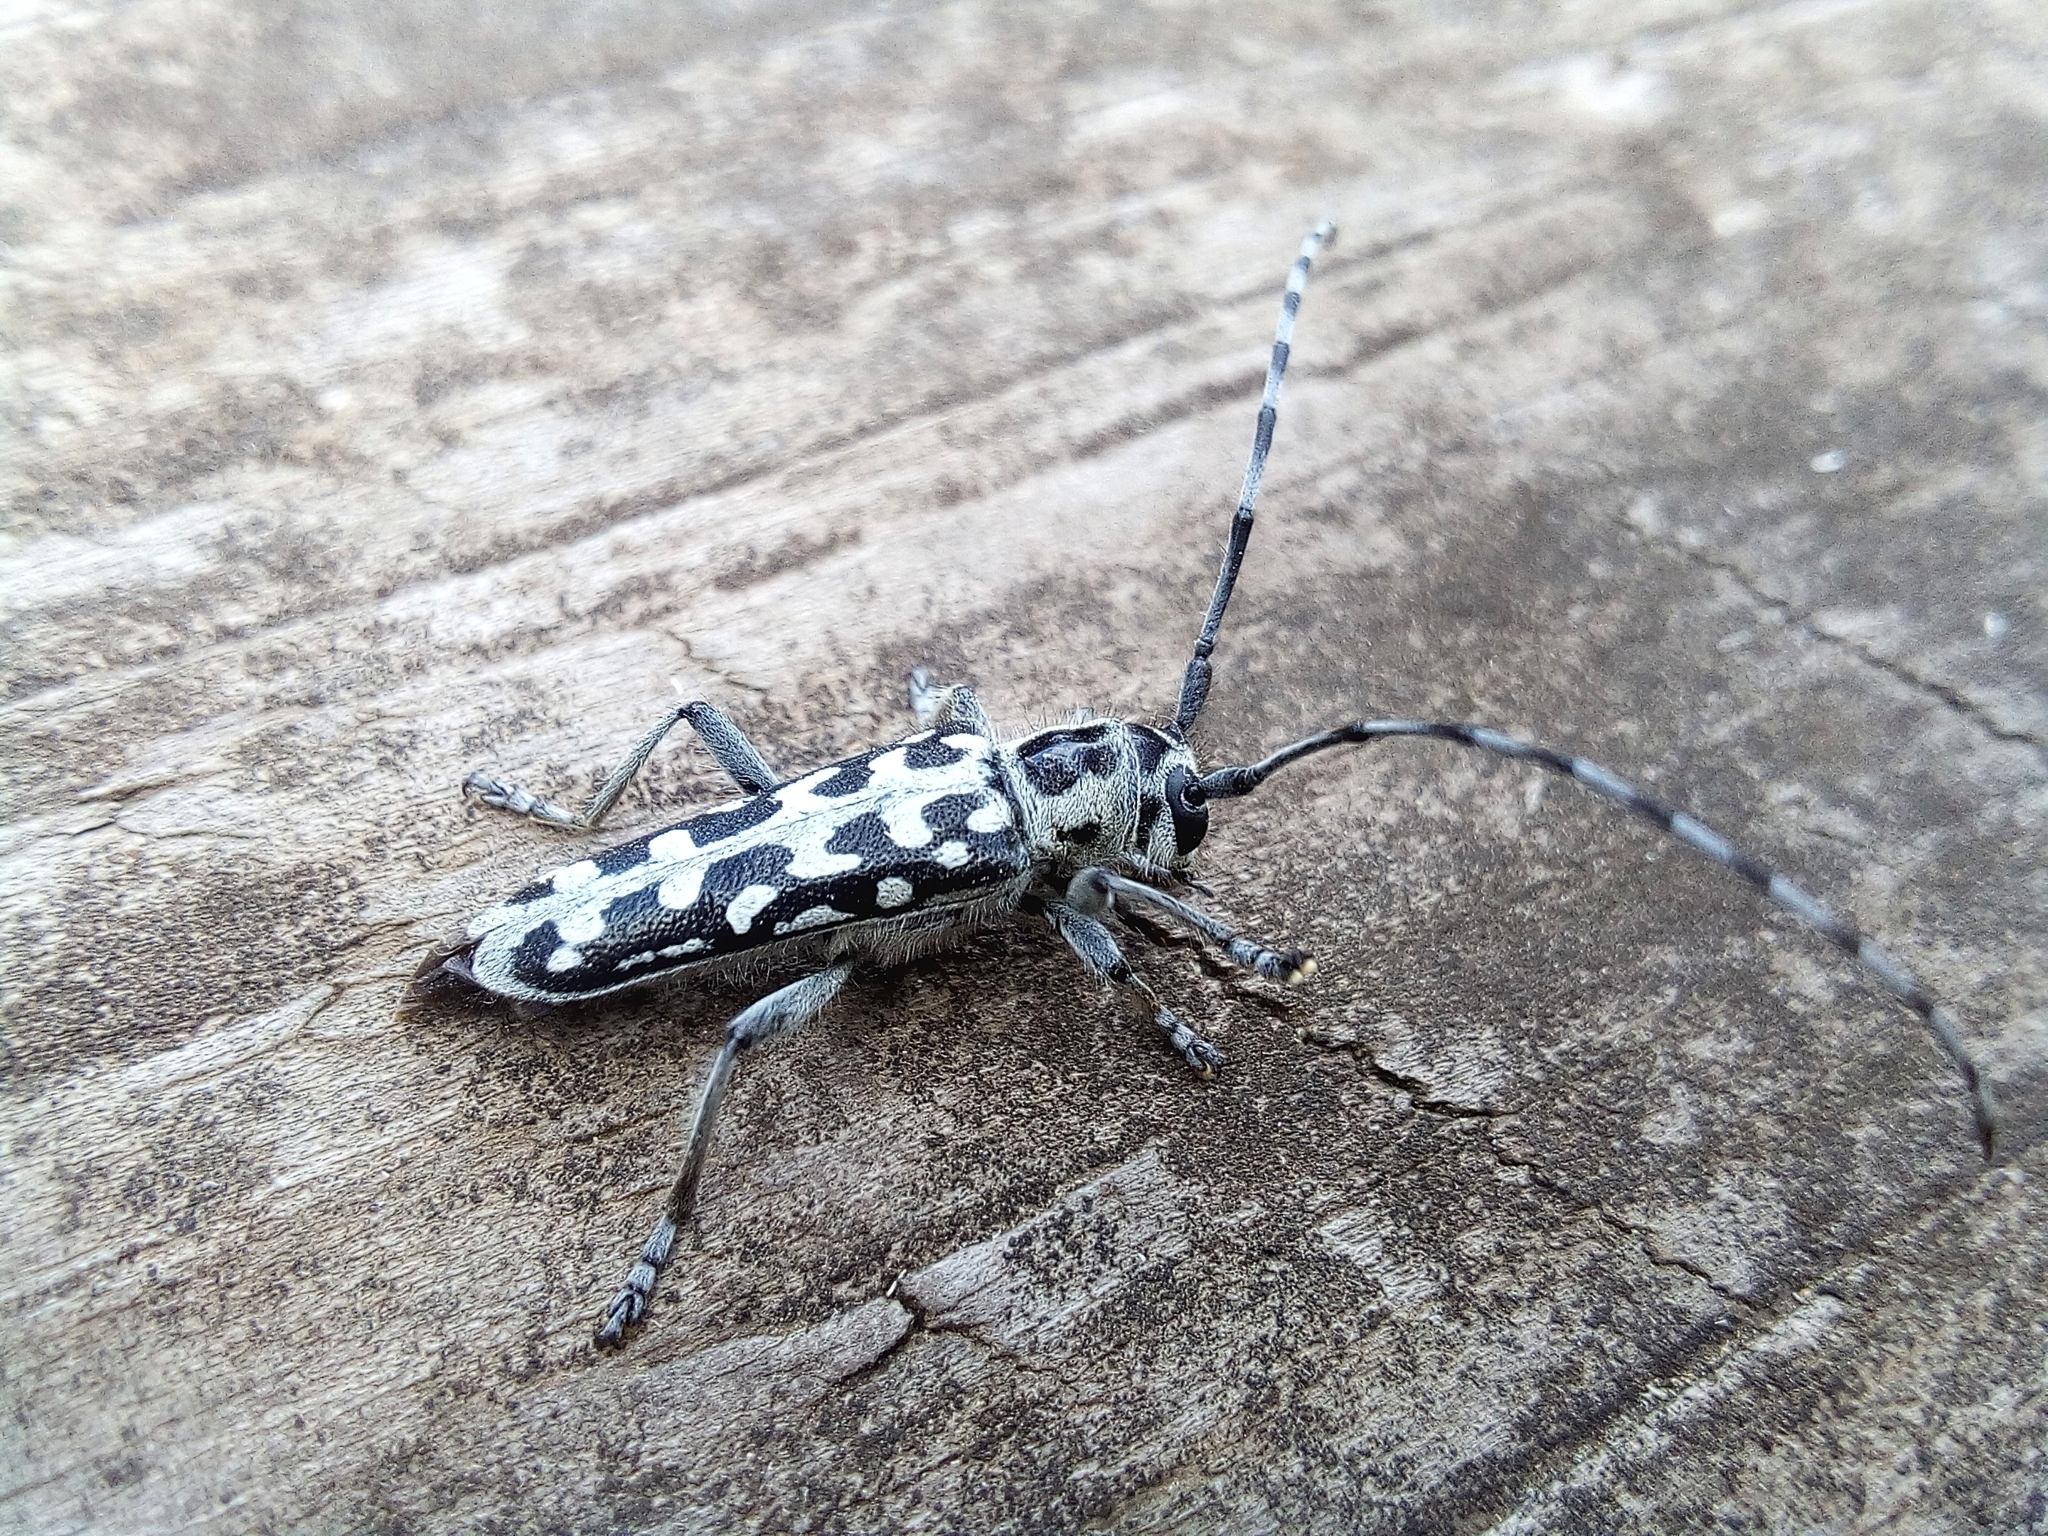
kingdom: Animalia
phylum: Arthropoda
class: Insecta
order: Coleoptera
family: Cerambycidae
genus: Saperda
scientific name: Saperda scalaris
